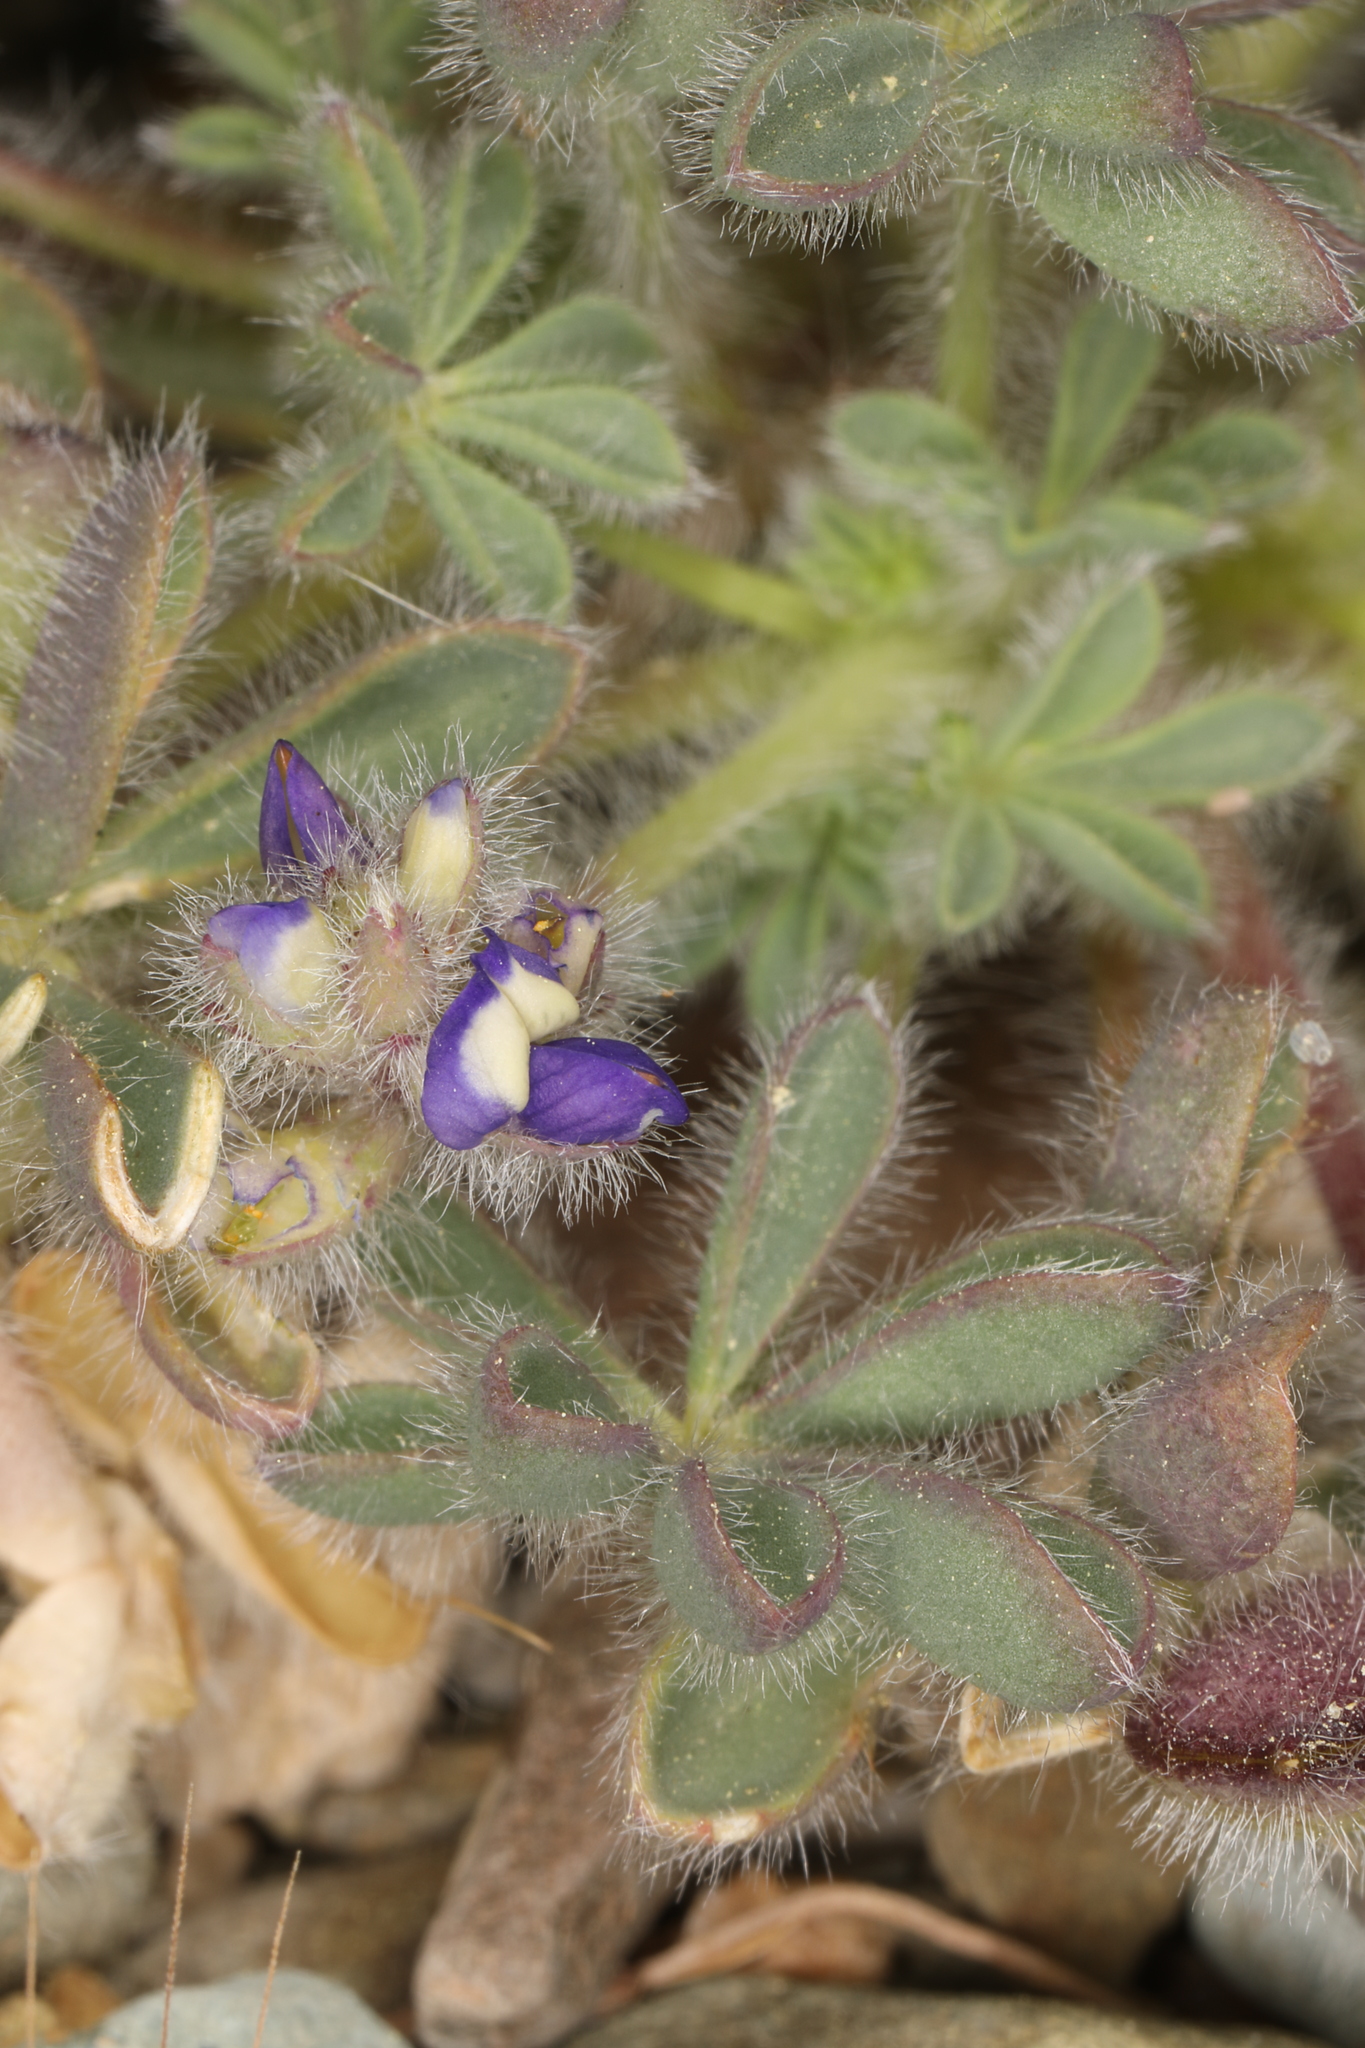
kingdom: Plantae
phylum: Tracheophyta
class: Magnoliopsida
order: Fabales
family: Fabaceae
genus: Lupinus
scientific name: Lupinus brevicaulis
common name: Sand lupine
